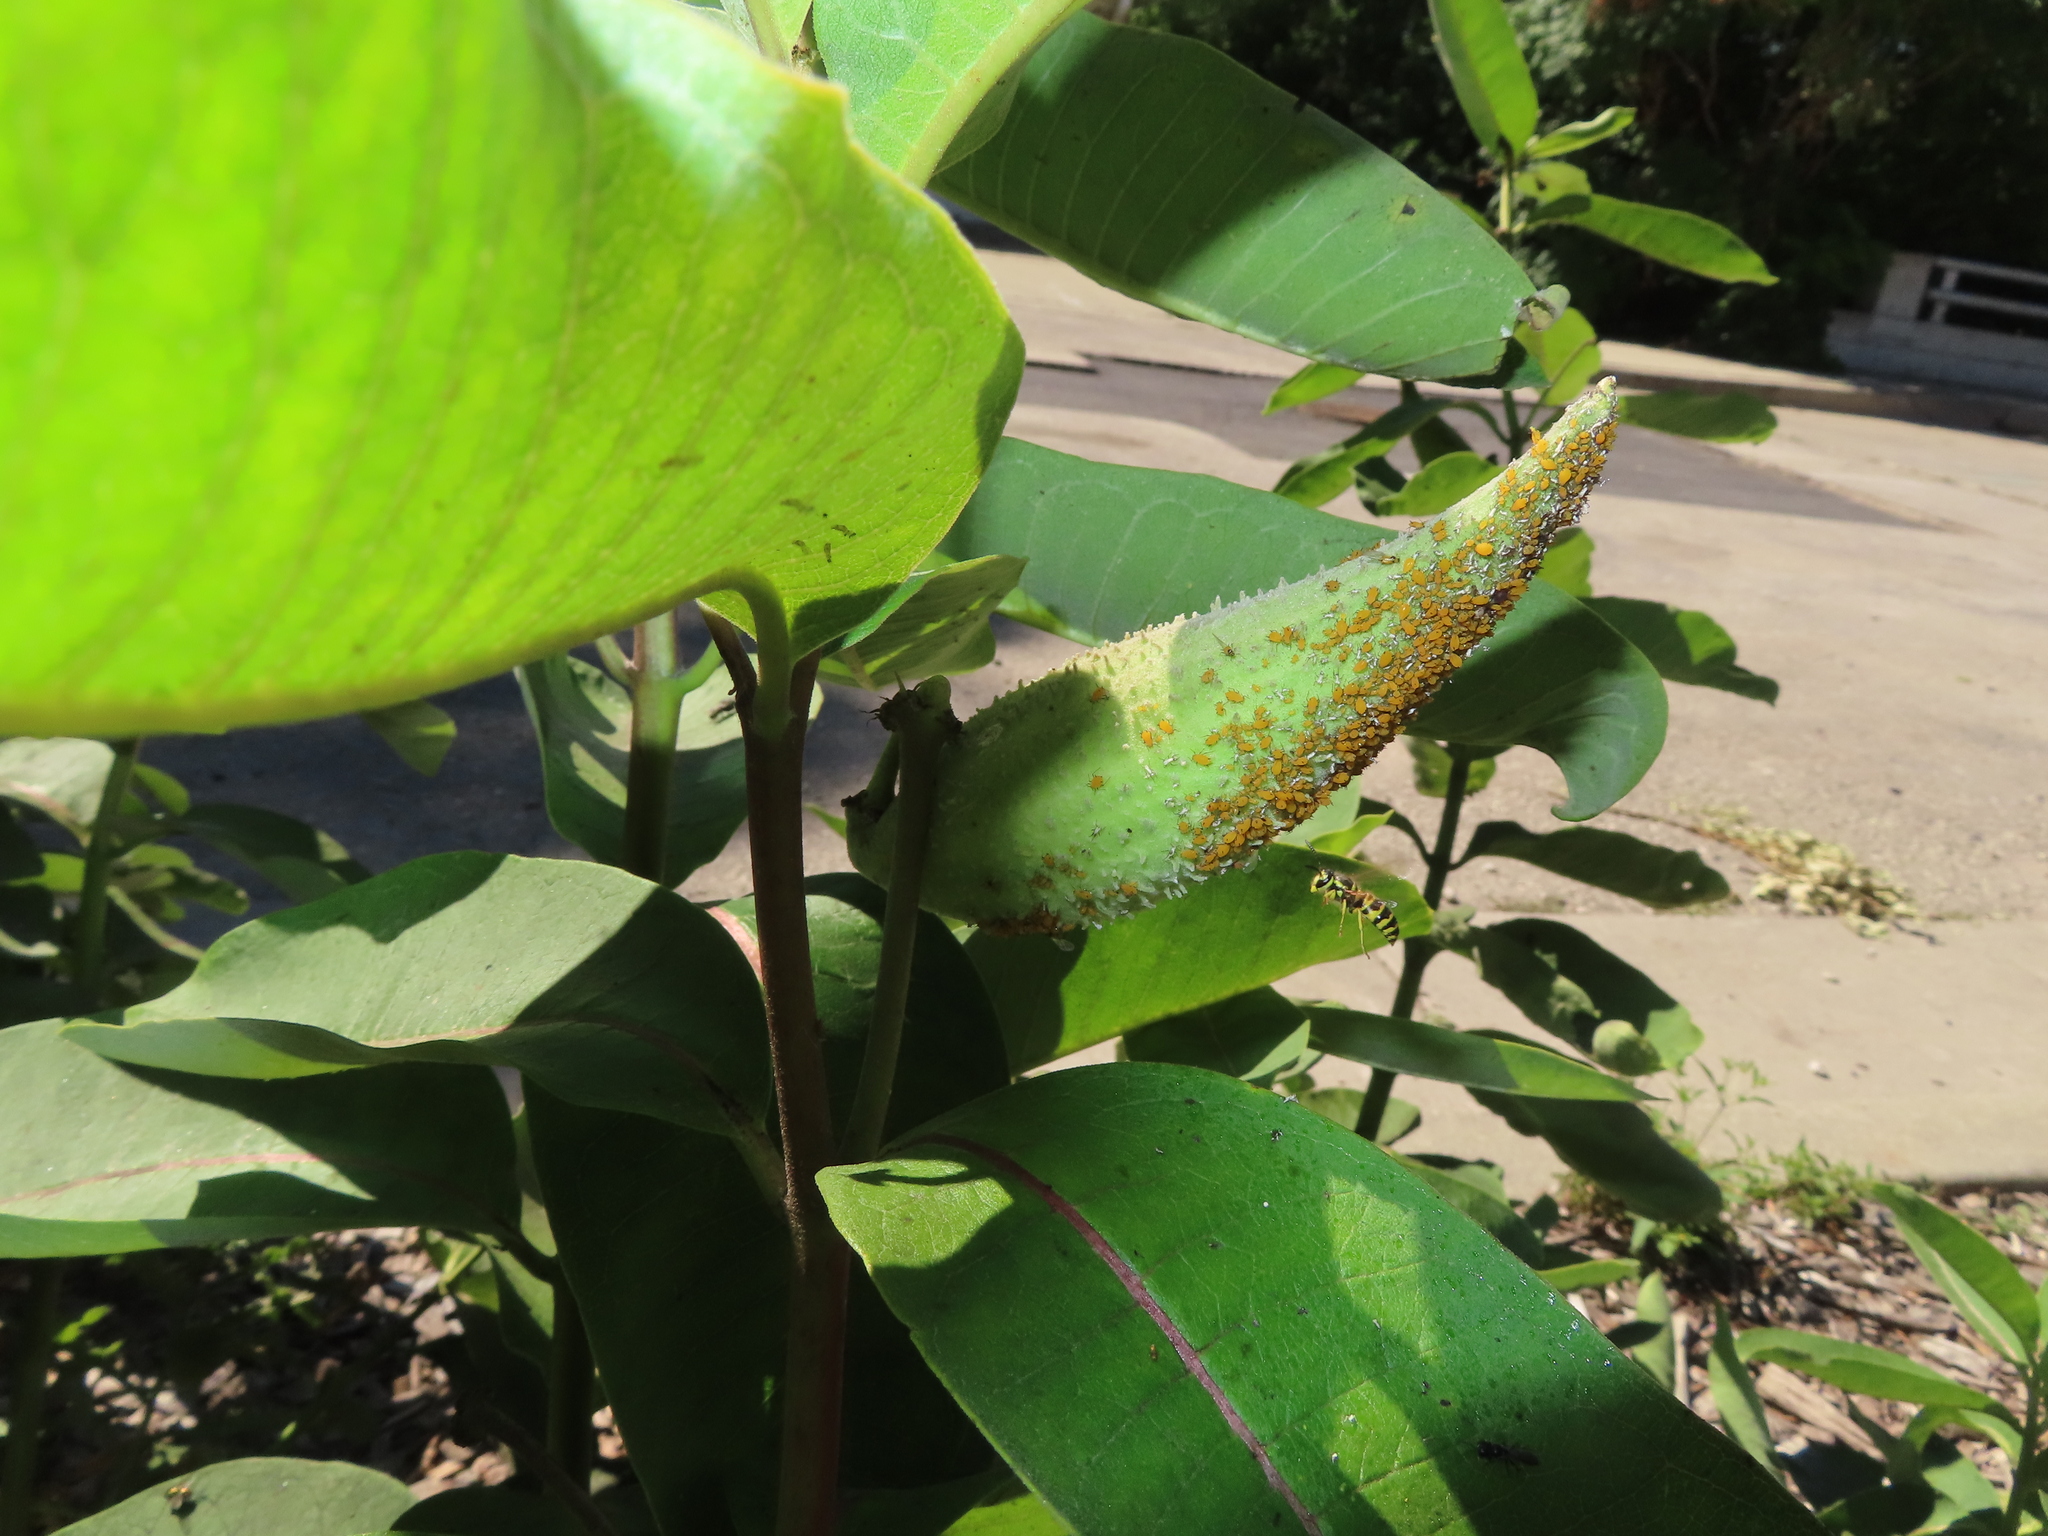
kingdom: Animalia
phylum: Arthropoda
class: Insecta
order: Hemiptera
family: Aphididae
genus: Aphis
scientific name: Aphis nerii
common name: Oleander aphid
